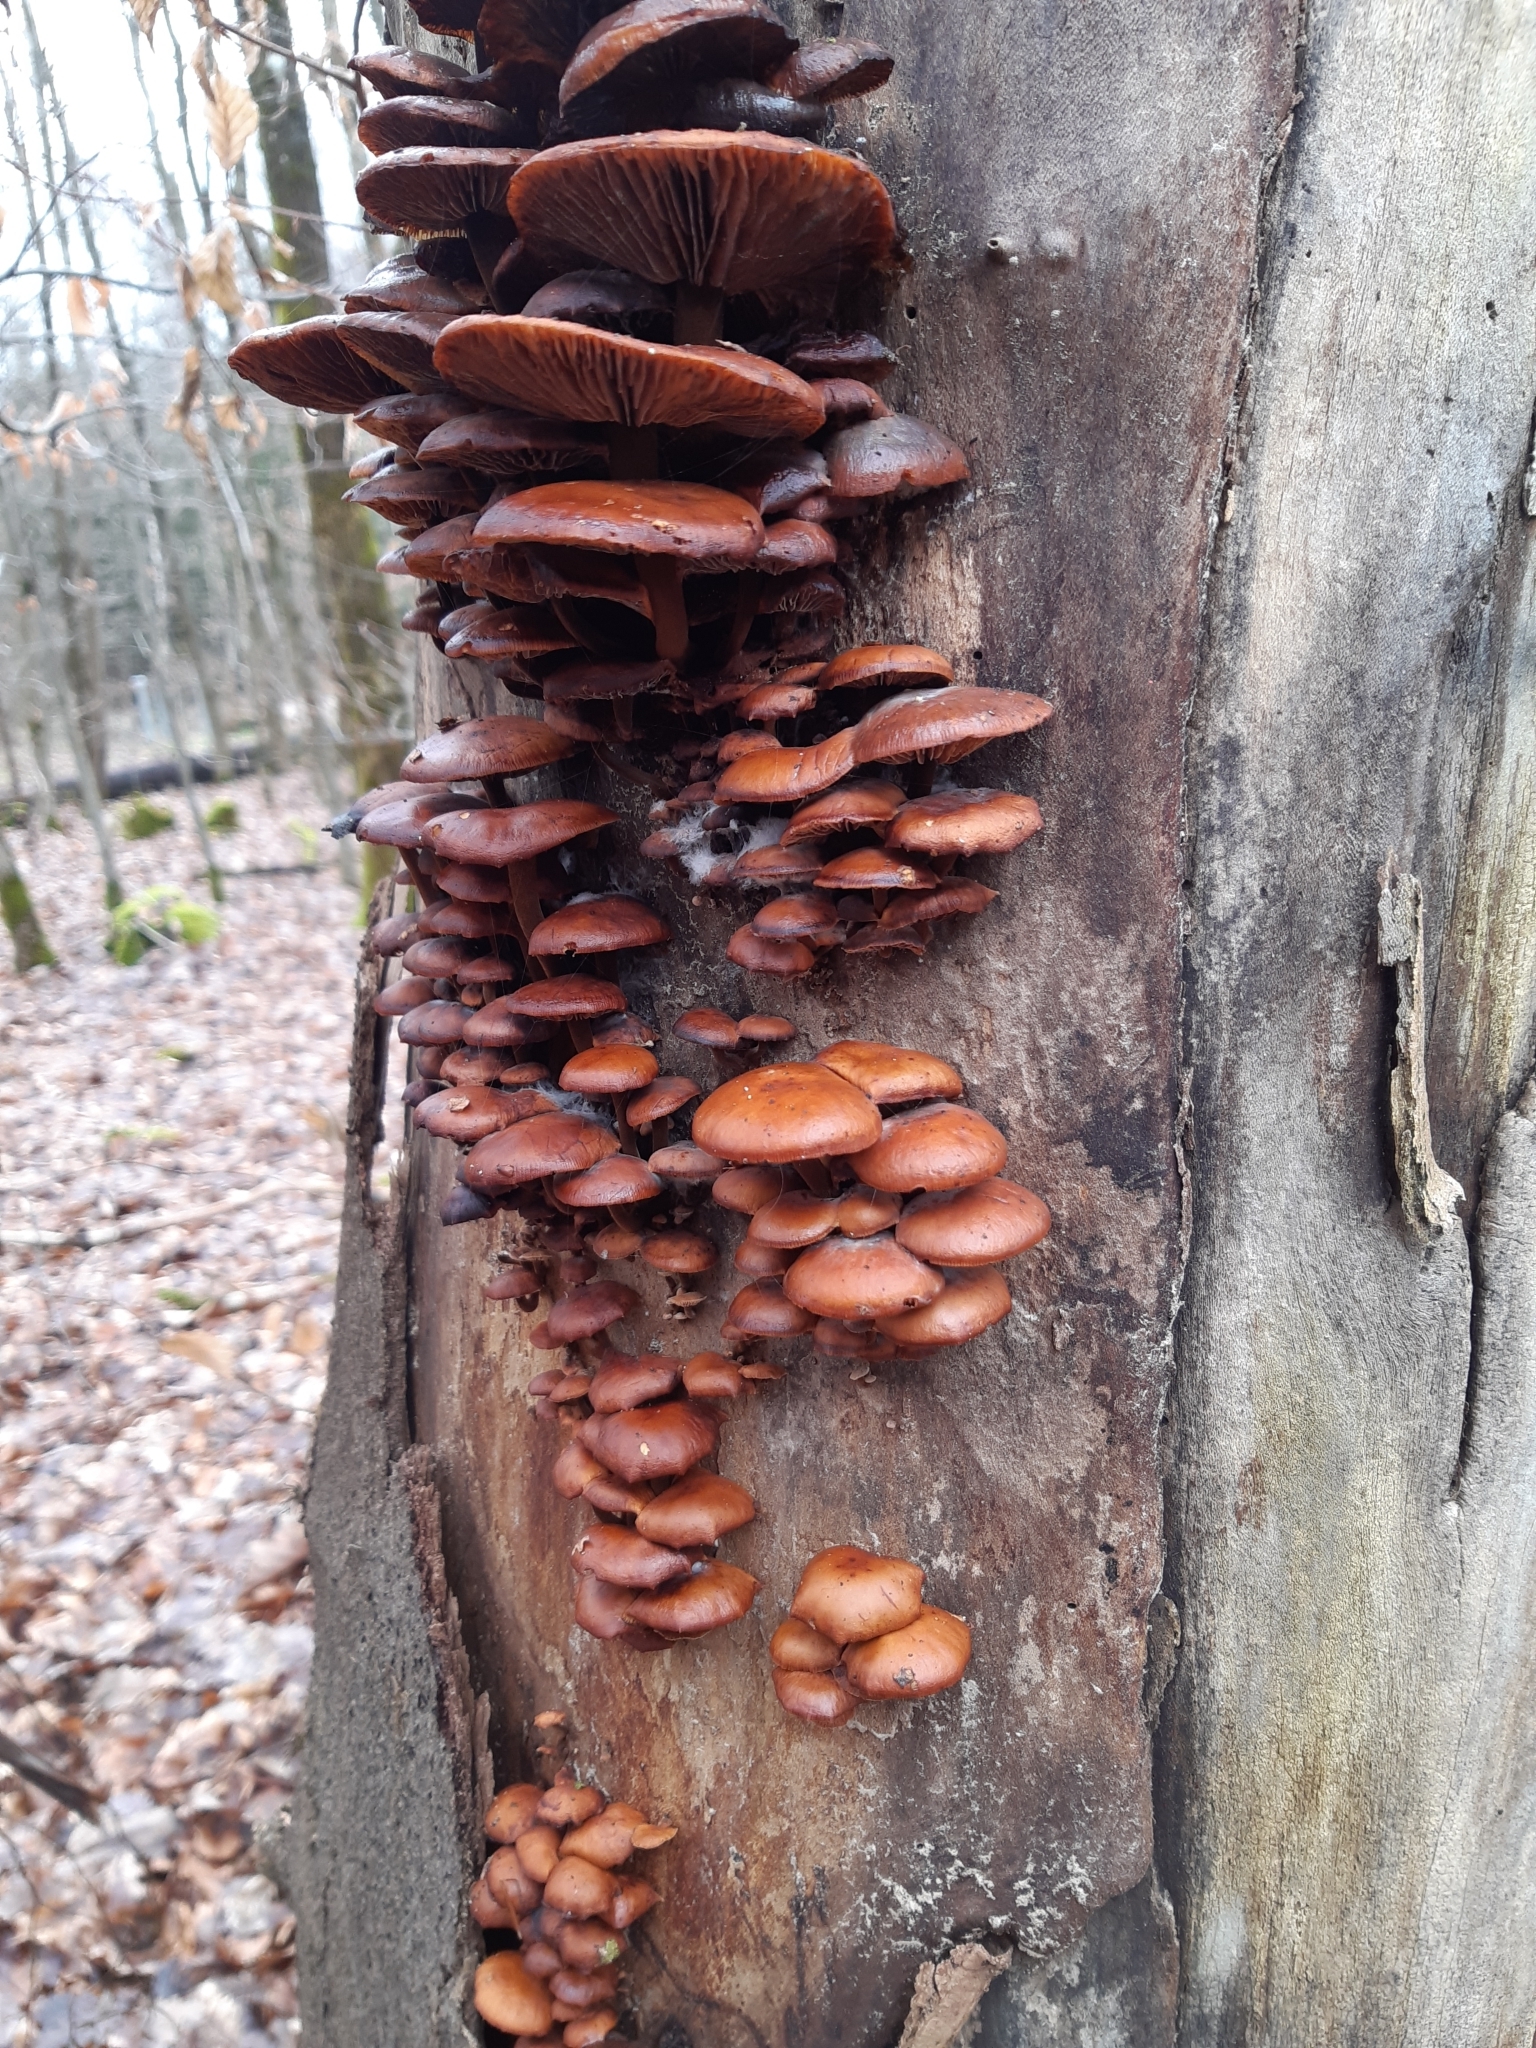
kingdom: Fungi
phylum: Basidiomycota
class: Agaricomycetes
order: Agaricales
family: Physalacriaceae
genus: Flammulina
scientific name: Flammulina
